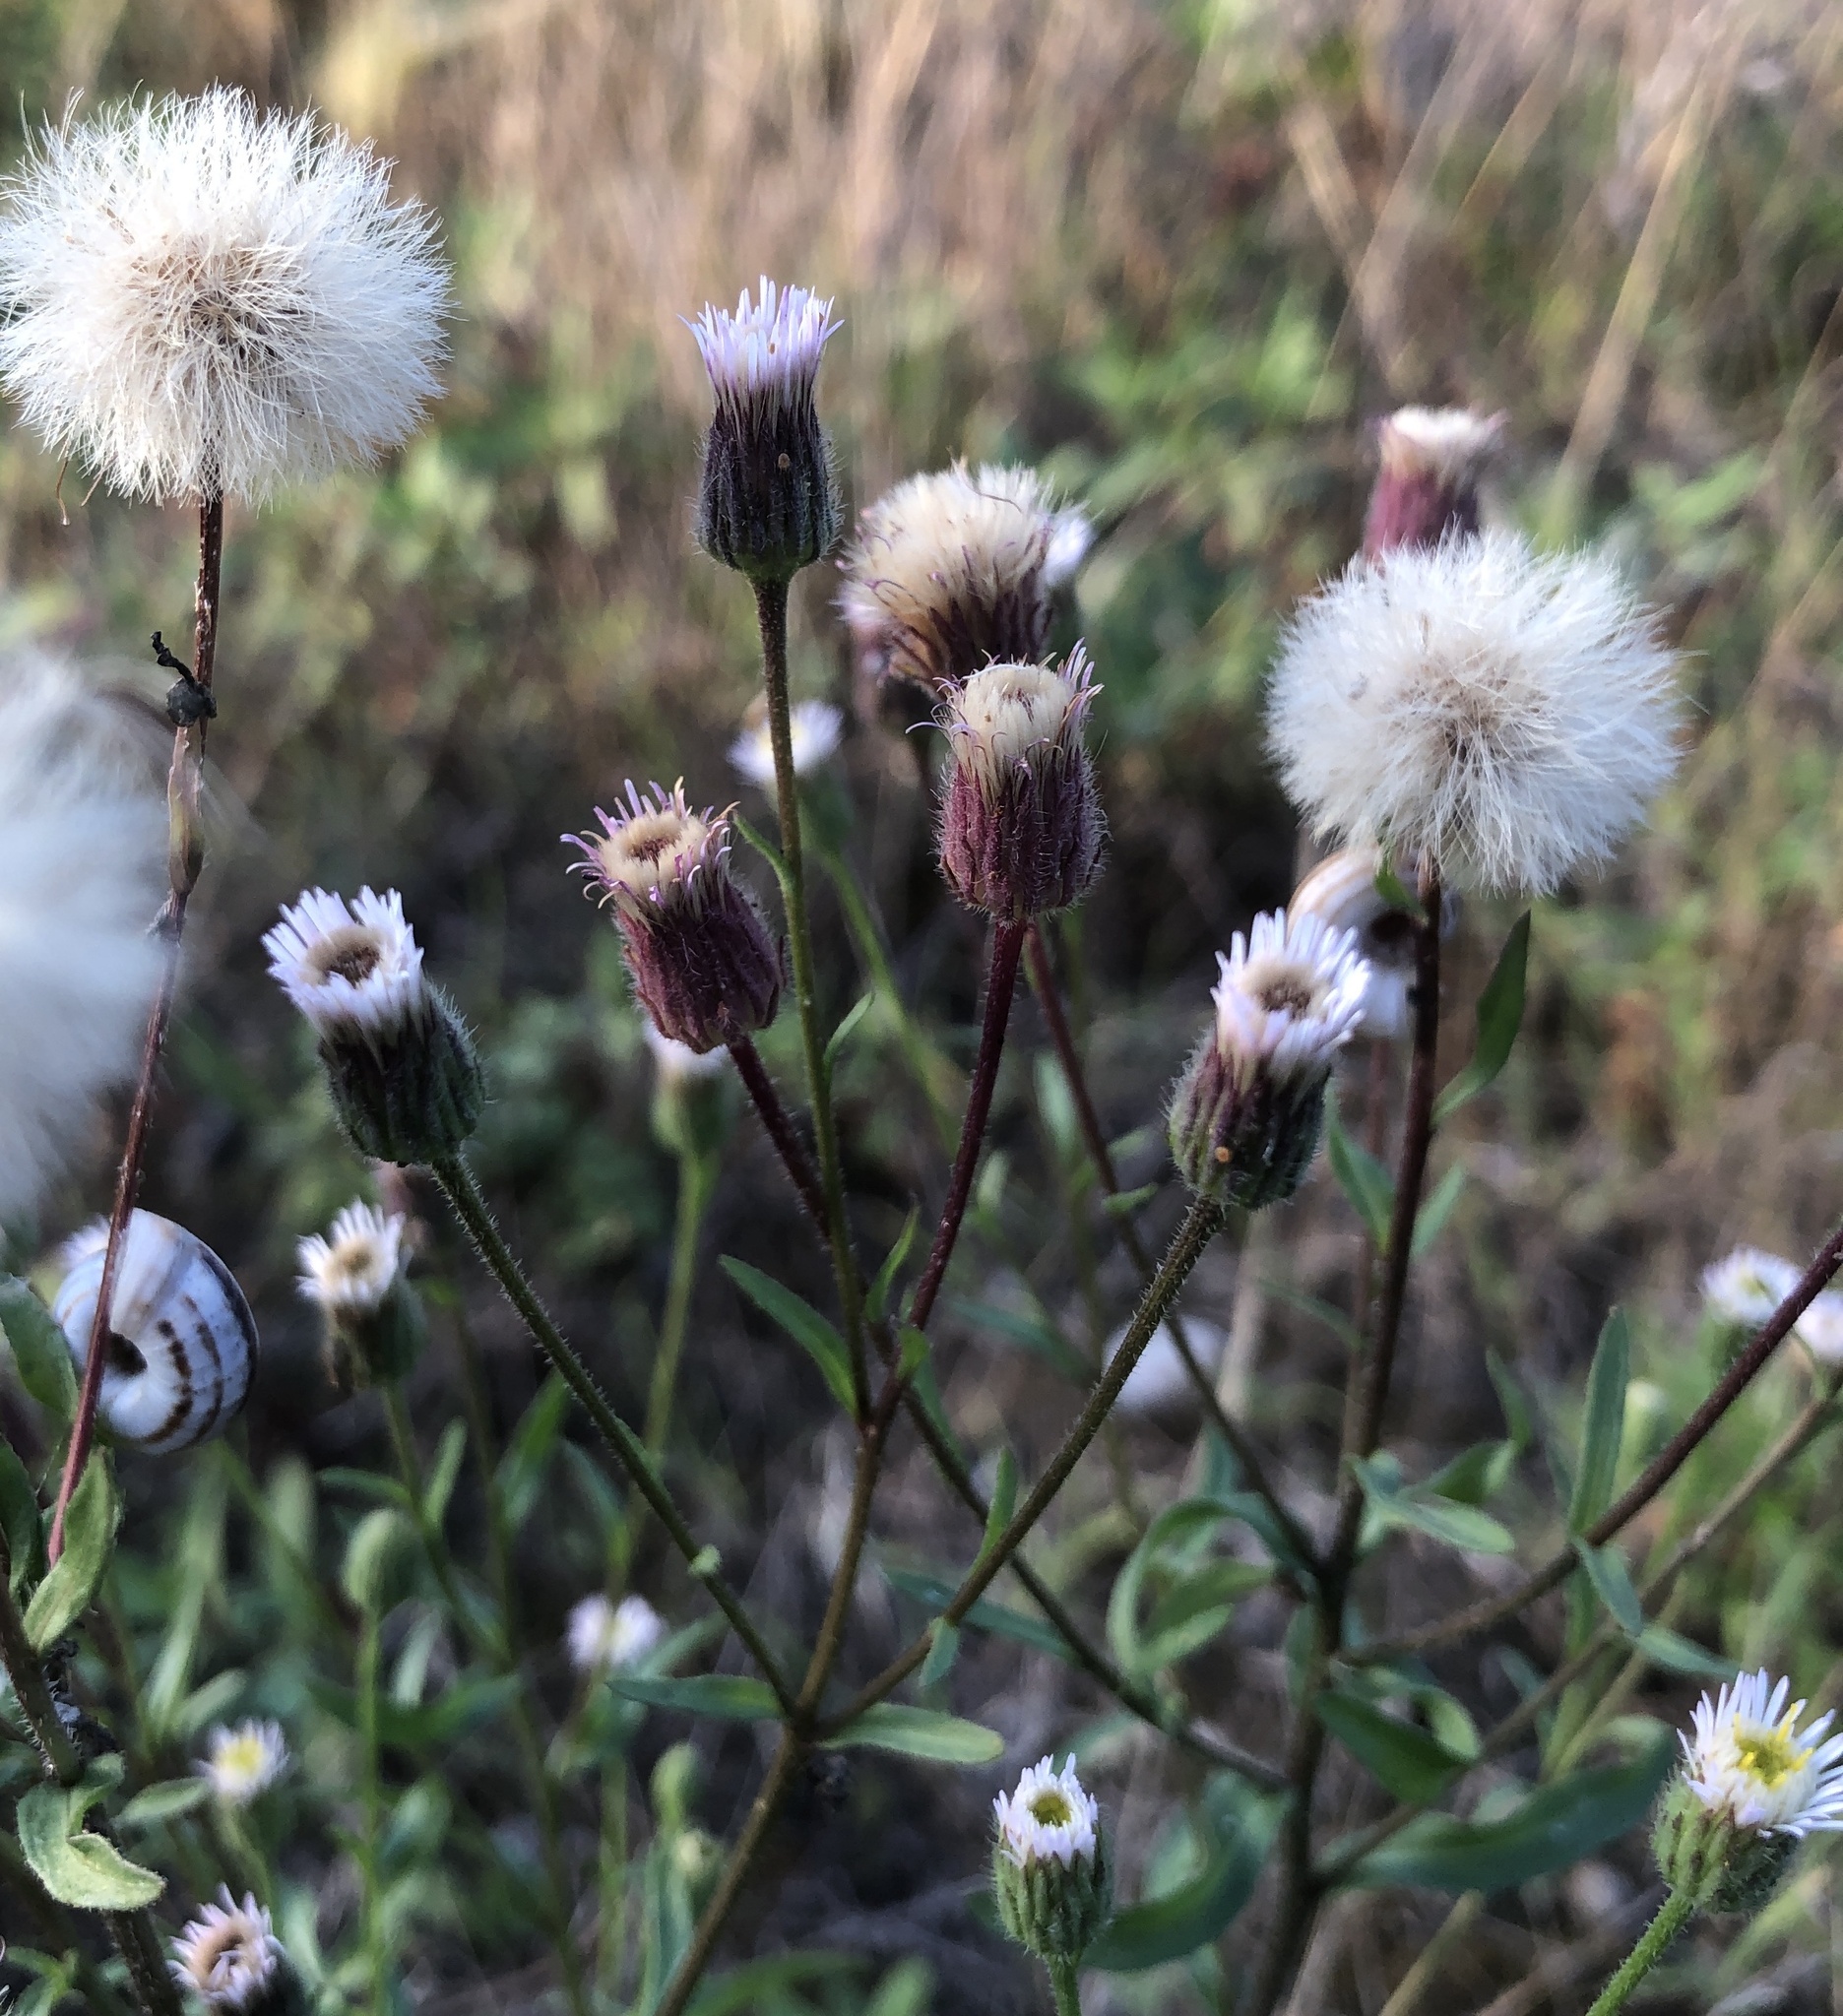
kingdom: Plantae
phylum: Tracheophyta
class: Magnoliopsida
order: Asterales
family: Asteraceae
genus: Erigeron
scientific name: Erigeron acris
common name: Blue fleabane
